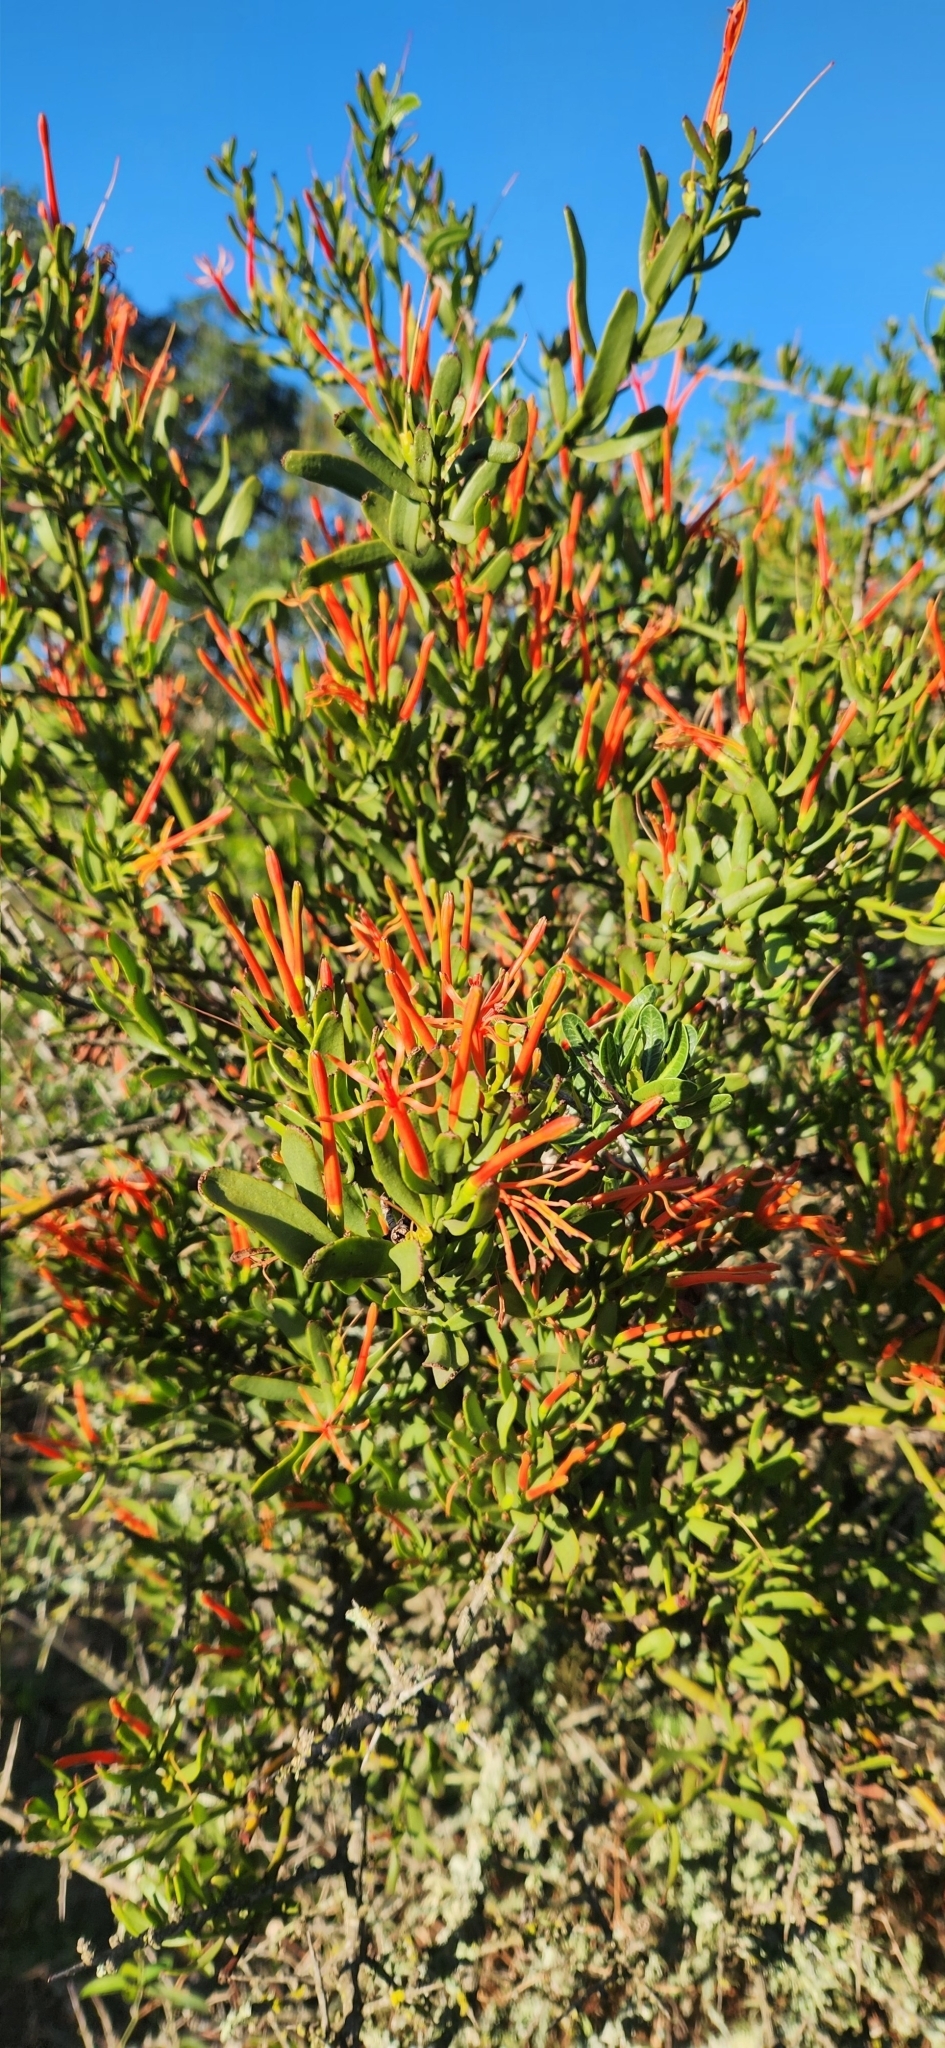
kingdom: Plantae
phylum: Tracheophyta
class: Magnoliopsida
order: Santalales
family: Loranthaceae
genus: Ligaria
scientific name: Ligaria cuneifolia
